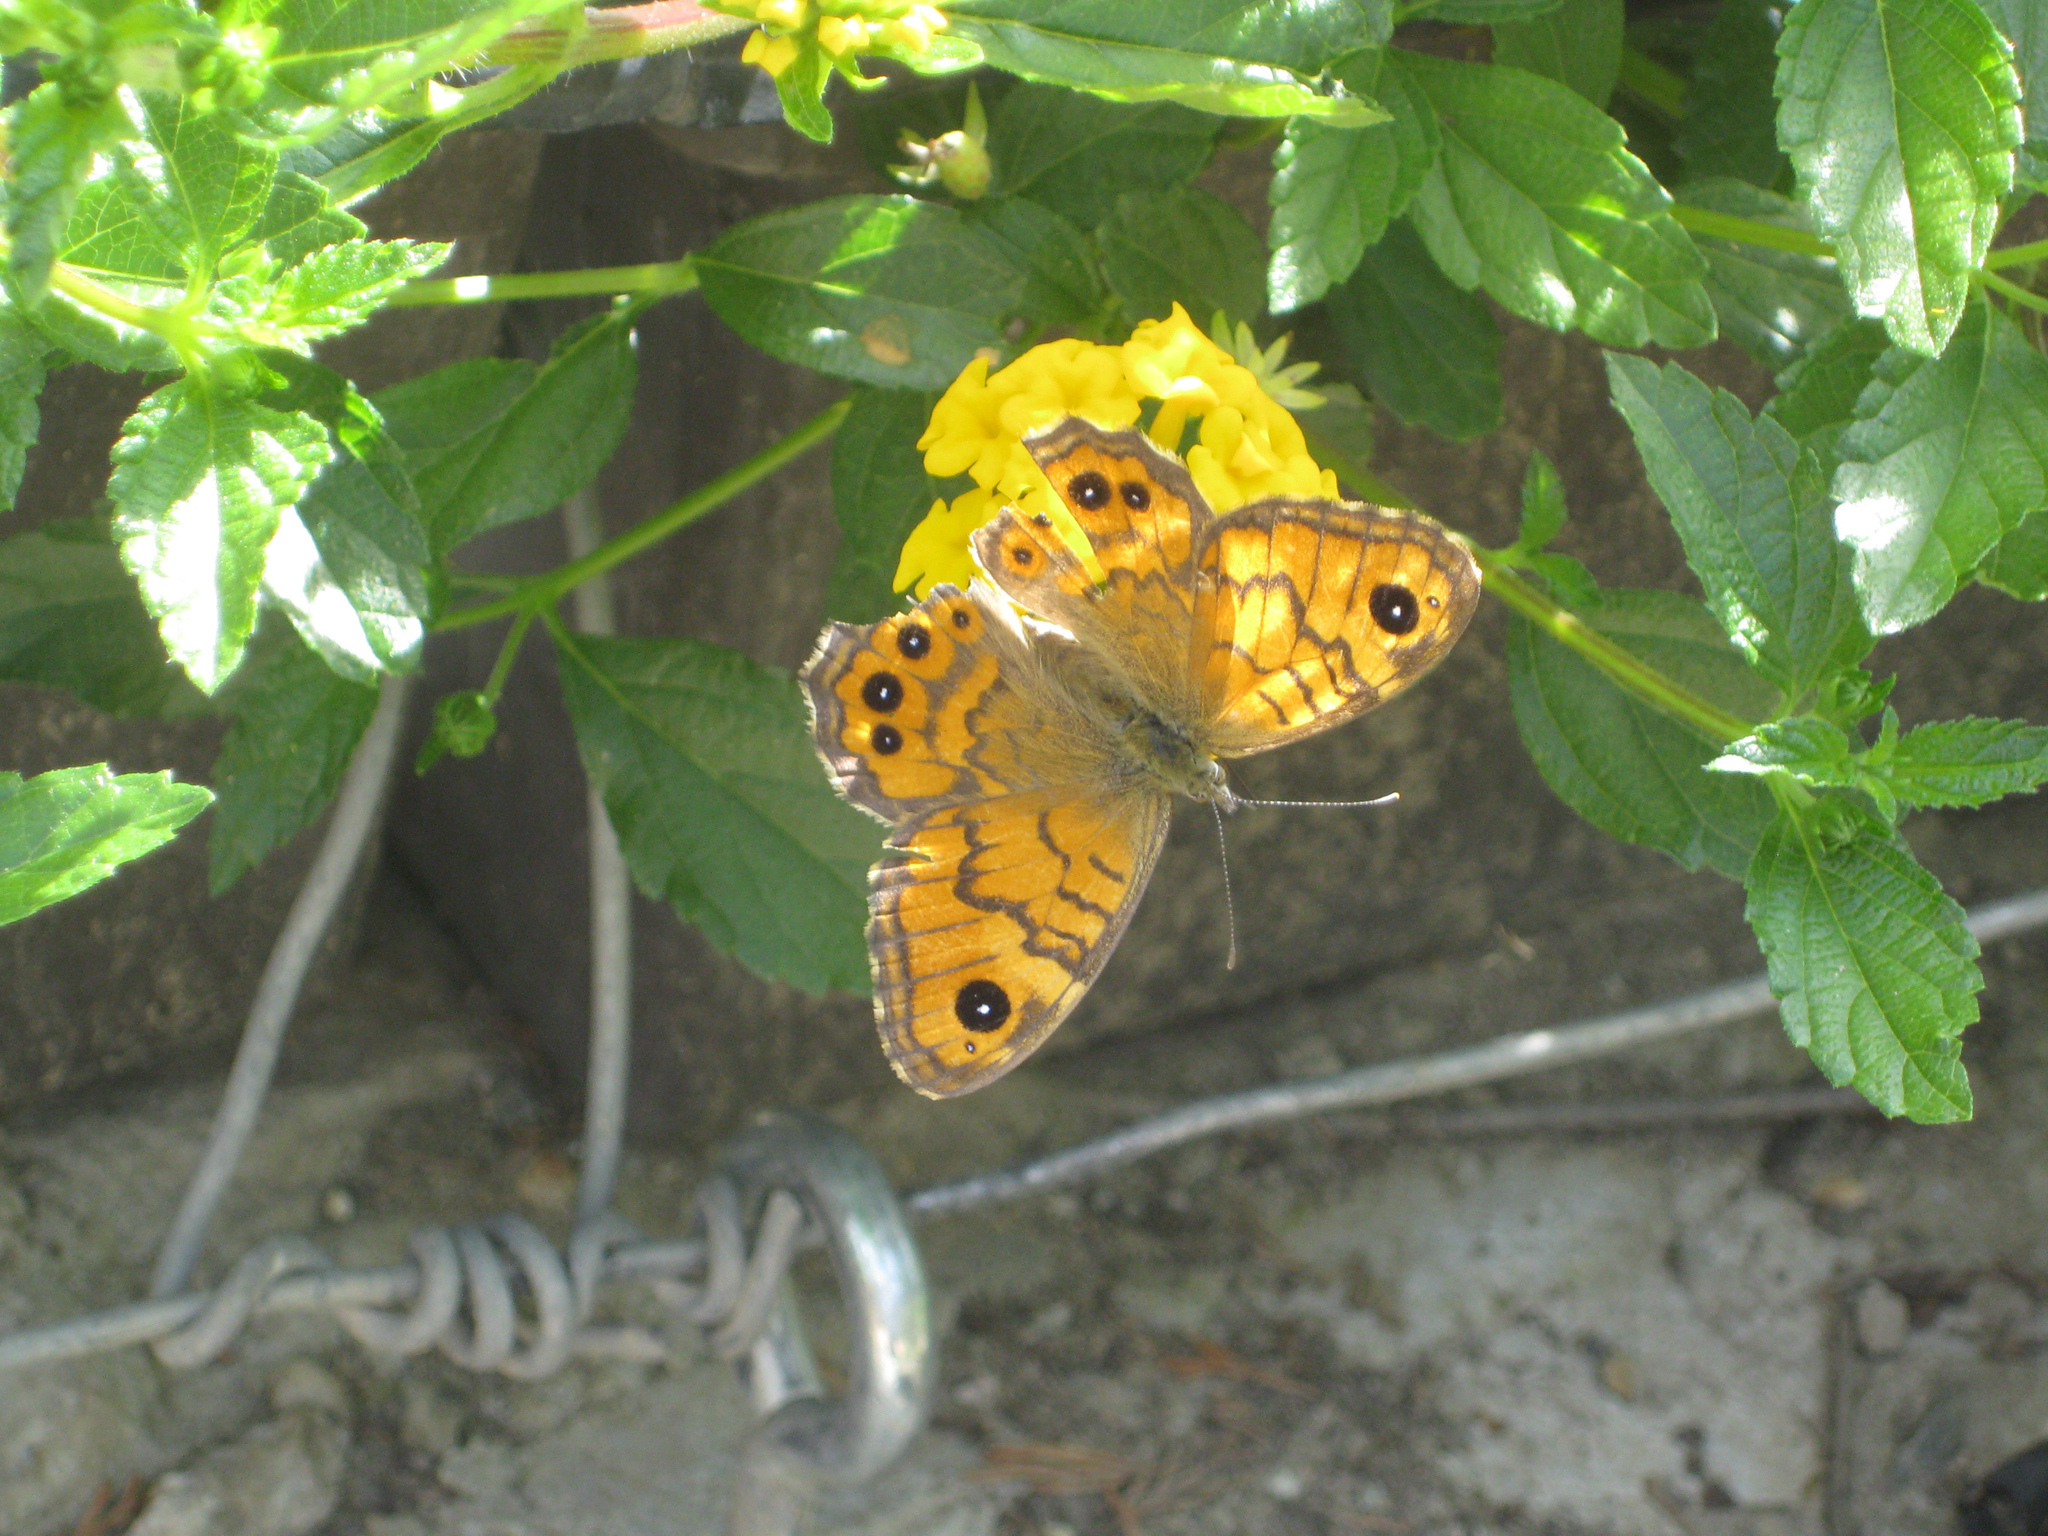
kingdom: Animalia
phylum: Arthropoda
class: Insecta
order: Lepidoptera
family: Nymphalidae
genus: Pararge
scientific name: Pararge Lasiommata megera
